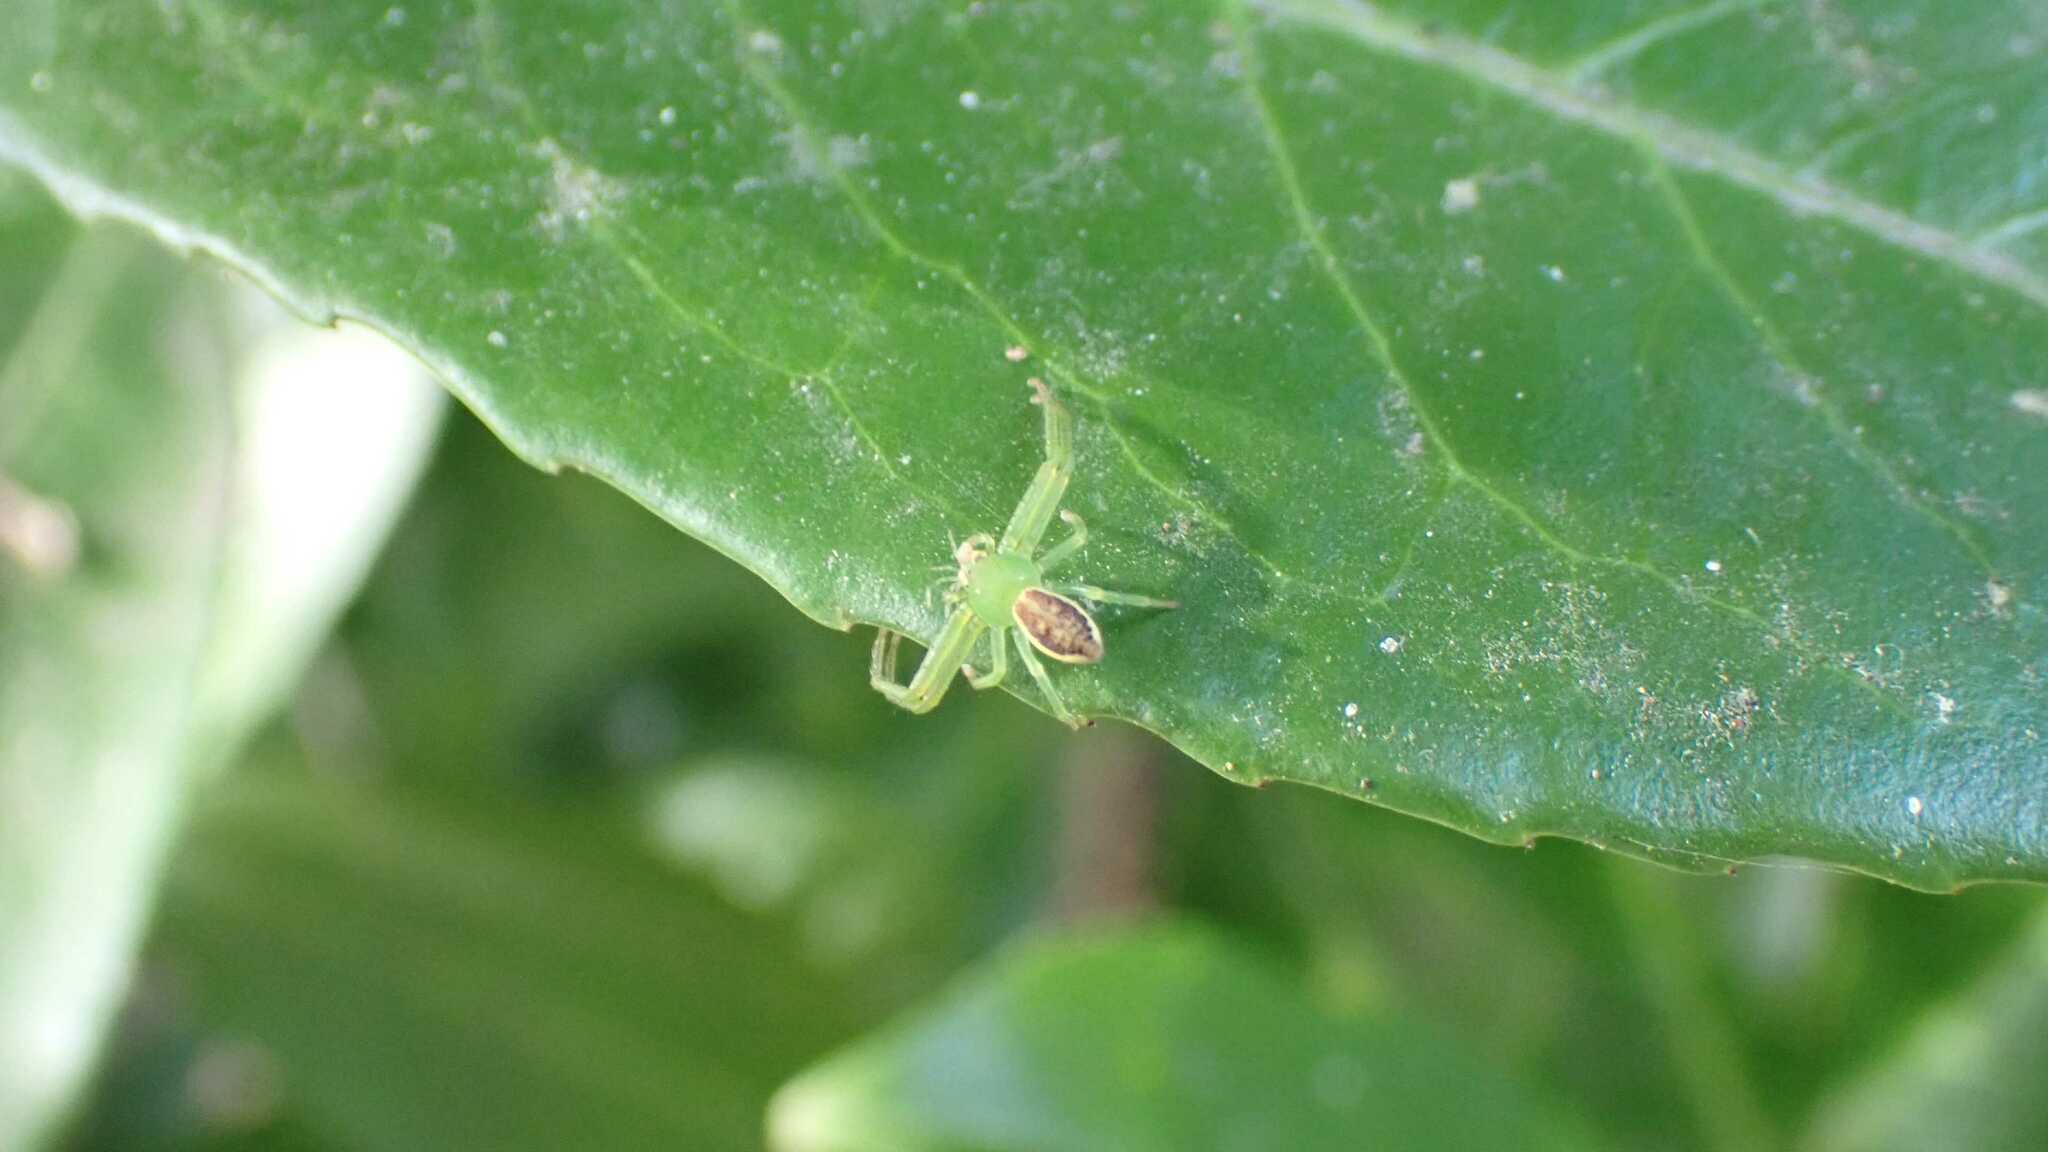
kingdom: Animalia
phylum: Arthropoda
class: Arachnida
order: Araneae
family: Thomisidae
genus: Diaea
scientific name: Diaea dorsata
